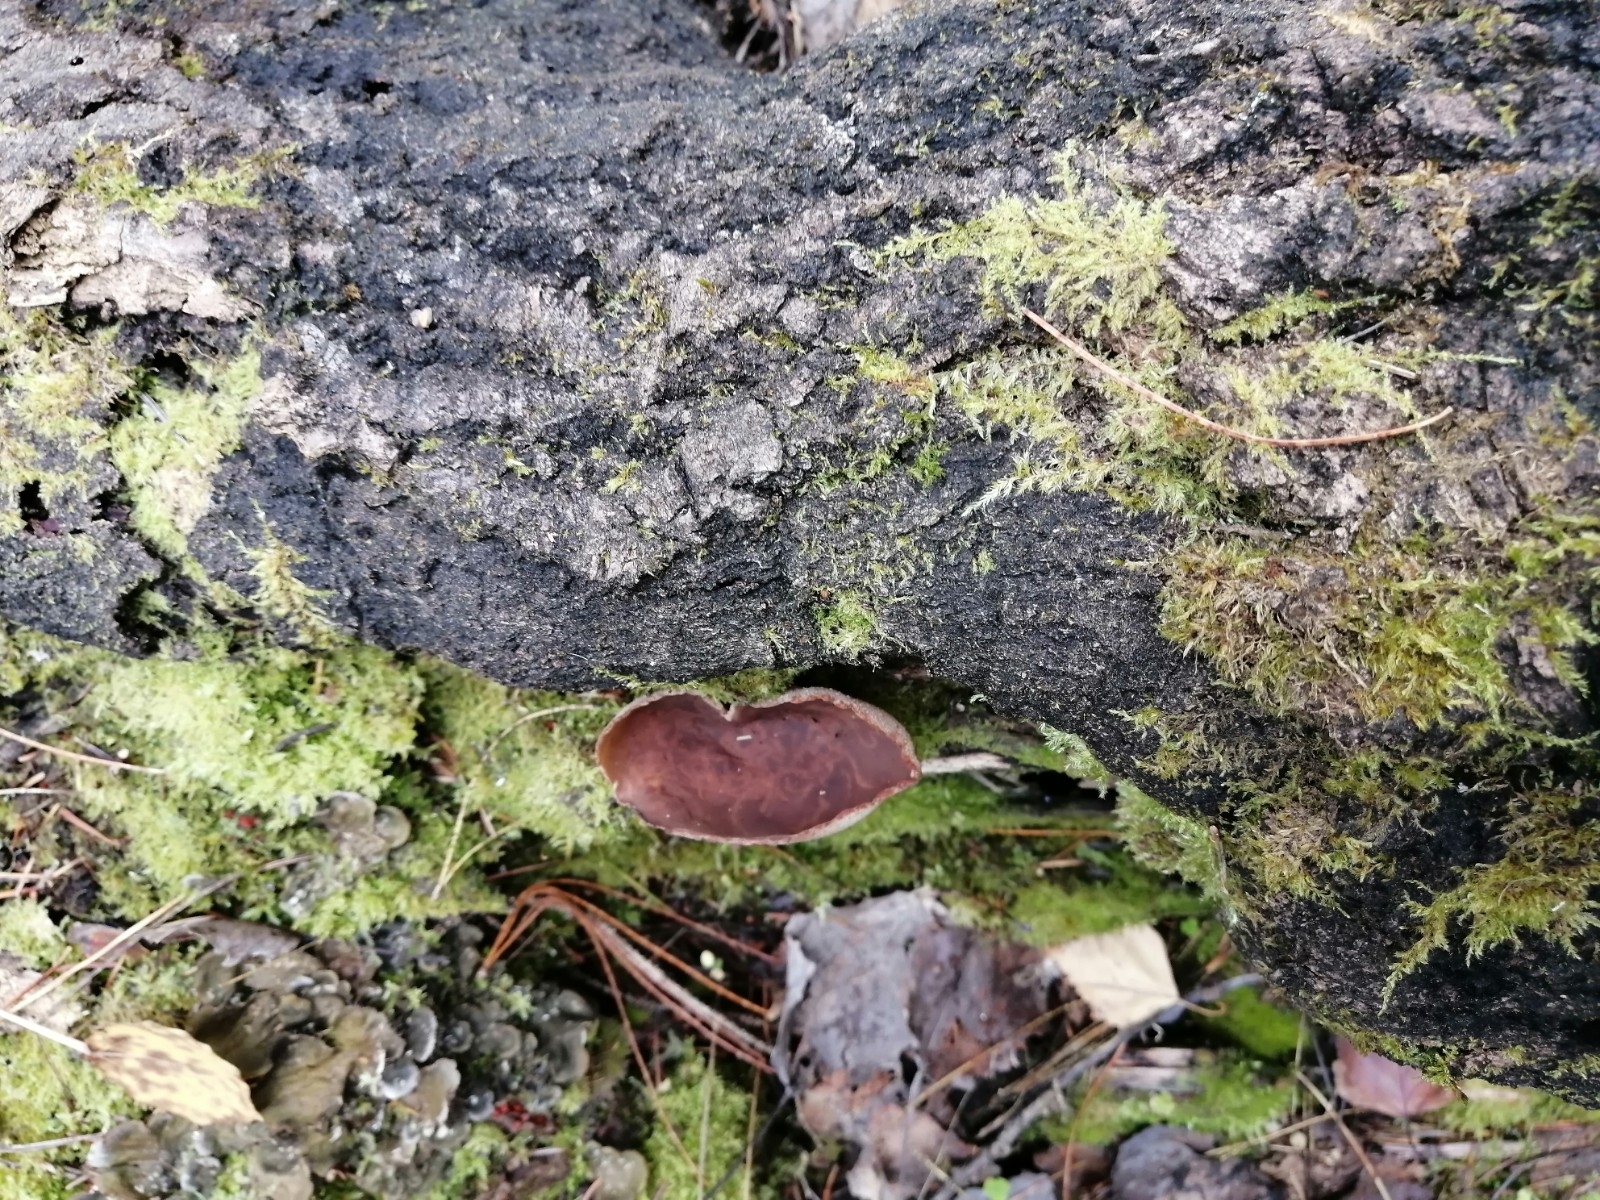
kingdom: Fungi
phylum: Ascomycota
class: Pezizomycetes
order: Pezizales
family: Pezizaceae
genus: Peziza
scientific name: Peziza varia
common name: Layered cup
